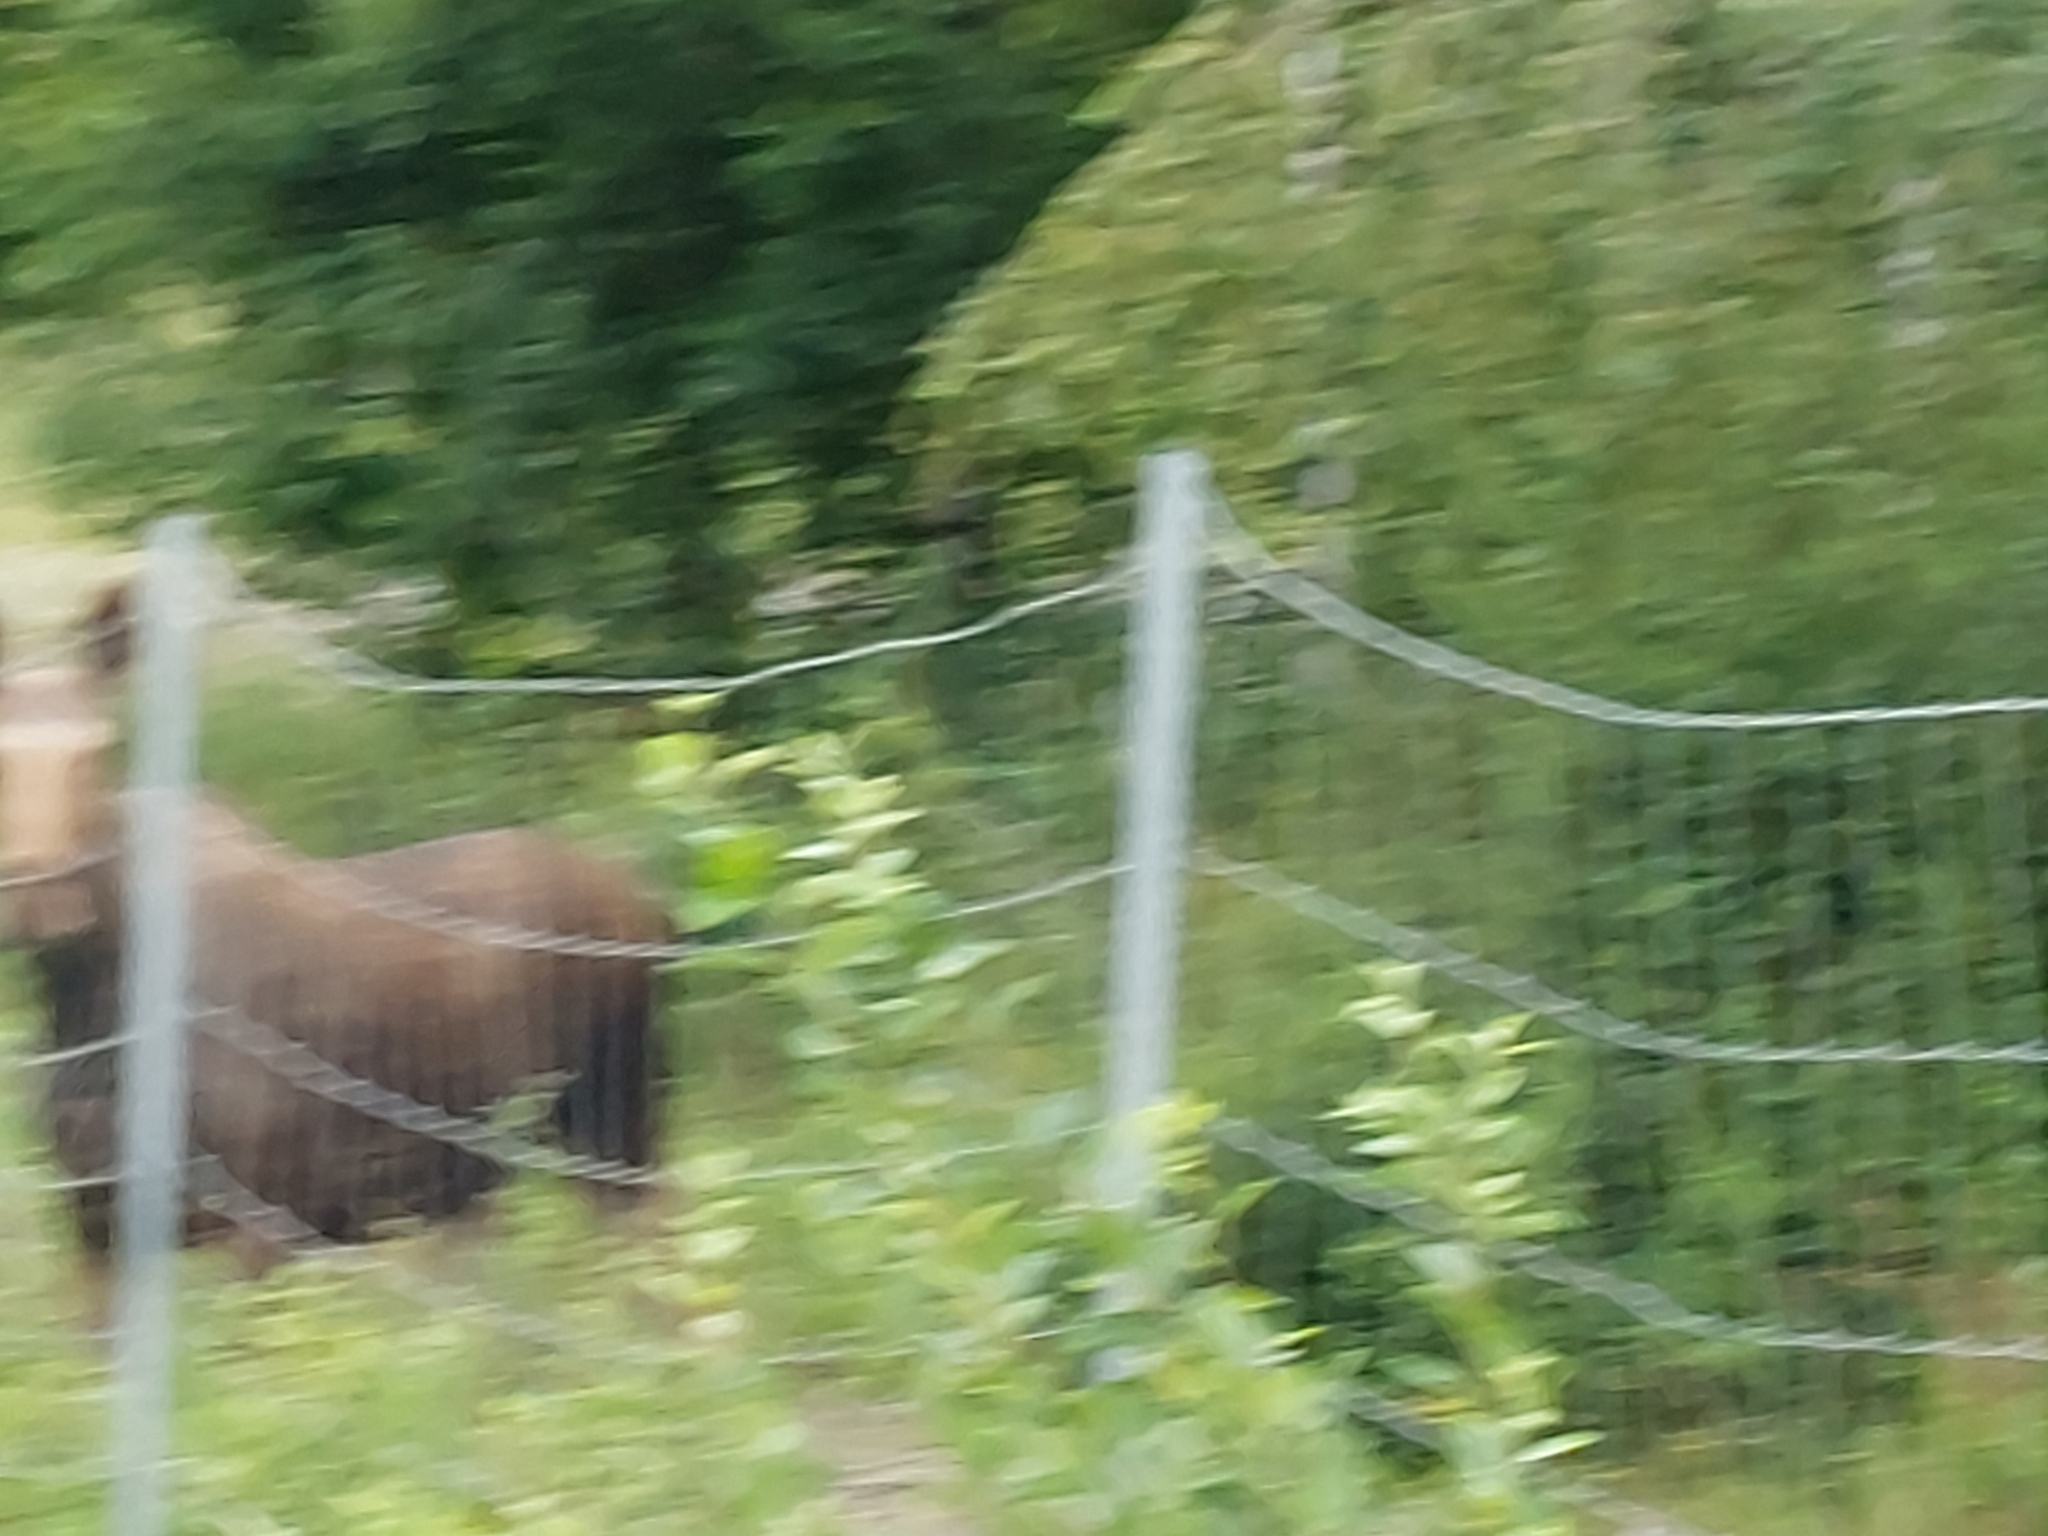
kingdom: Animalia
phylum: Chordata
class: Mammalia
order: Artiodactyla
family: Cervidae
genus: Alces
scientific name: Alces alces
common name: Moose
